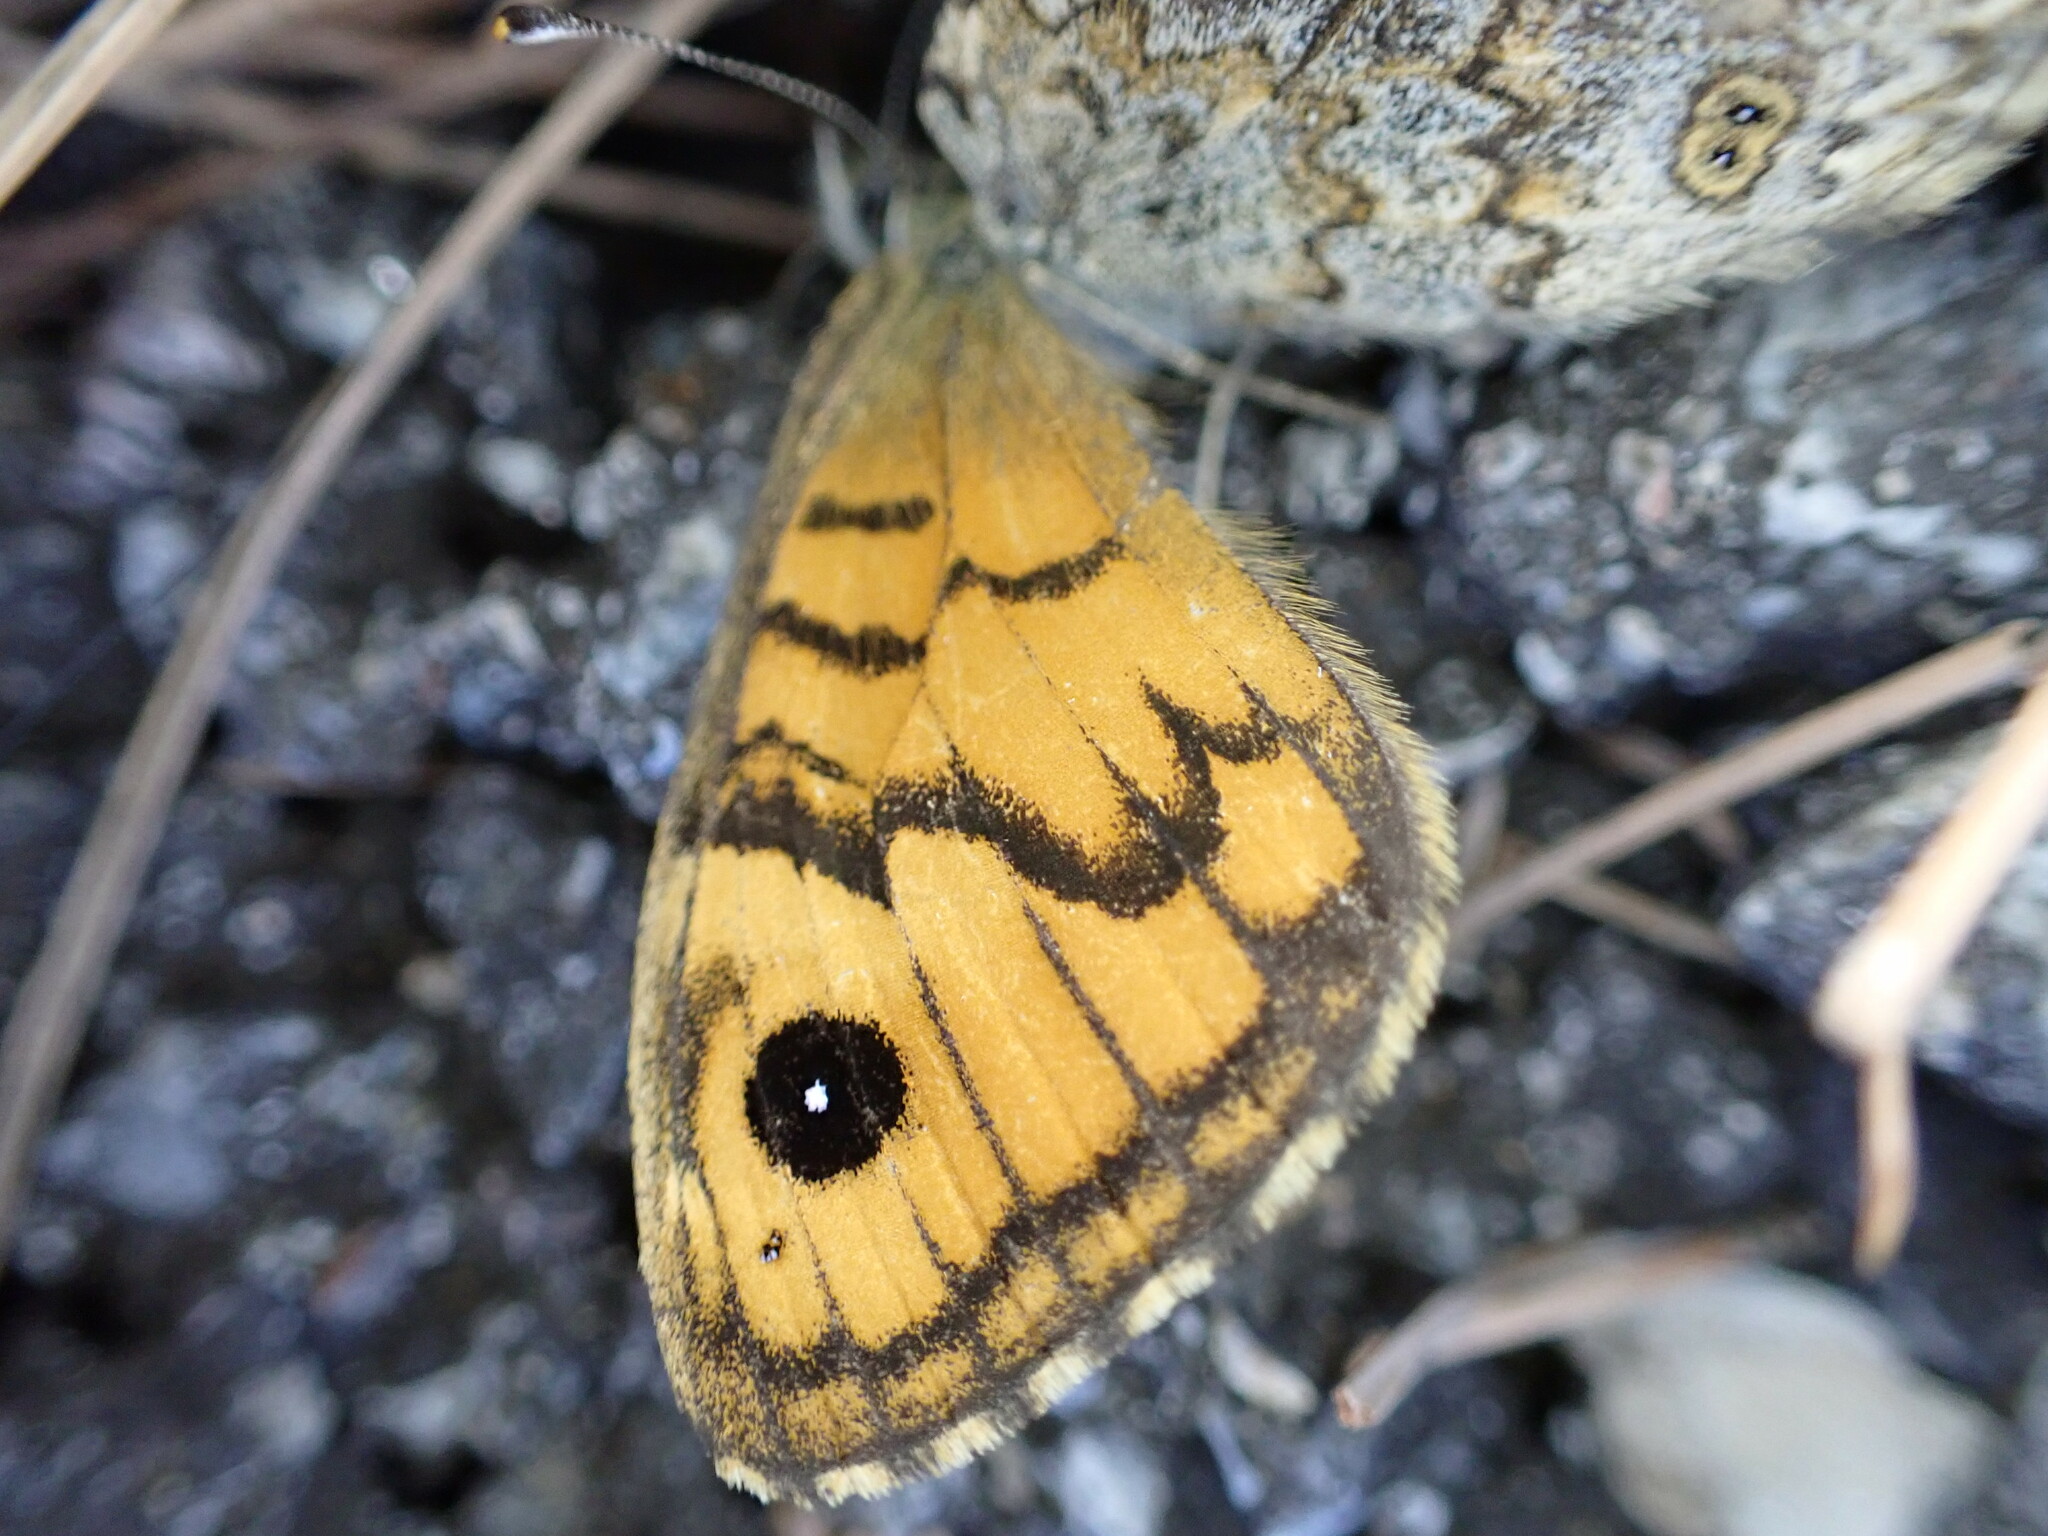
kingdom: Animalia
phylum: Arthropoda
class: Insecta
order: Lepidoptera
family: Nymphalidae
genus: Pararge
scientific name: Pararge Lasiommata megera
